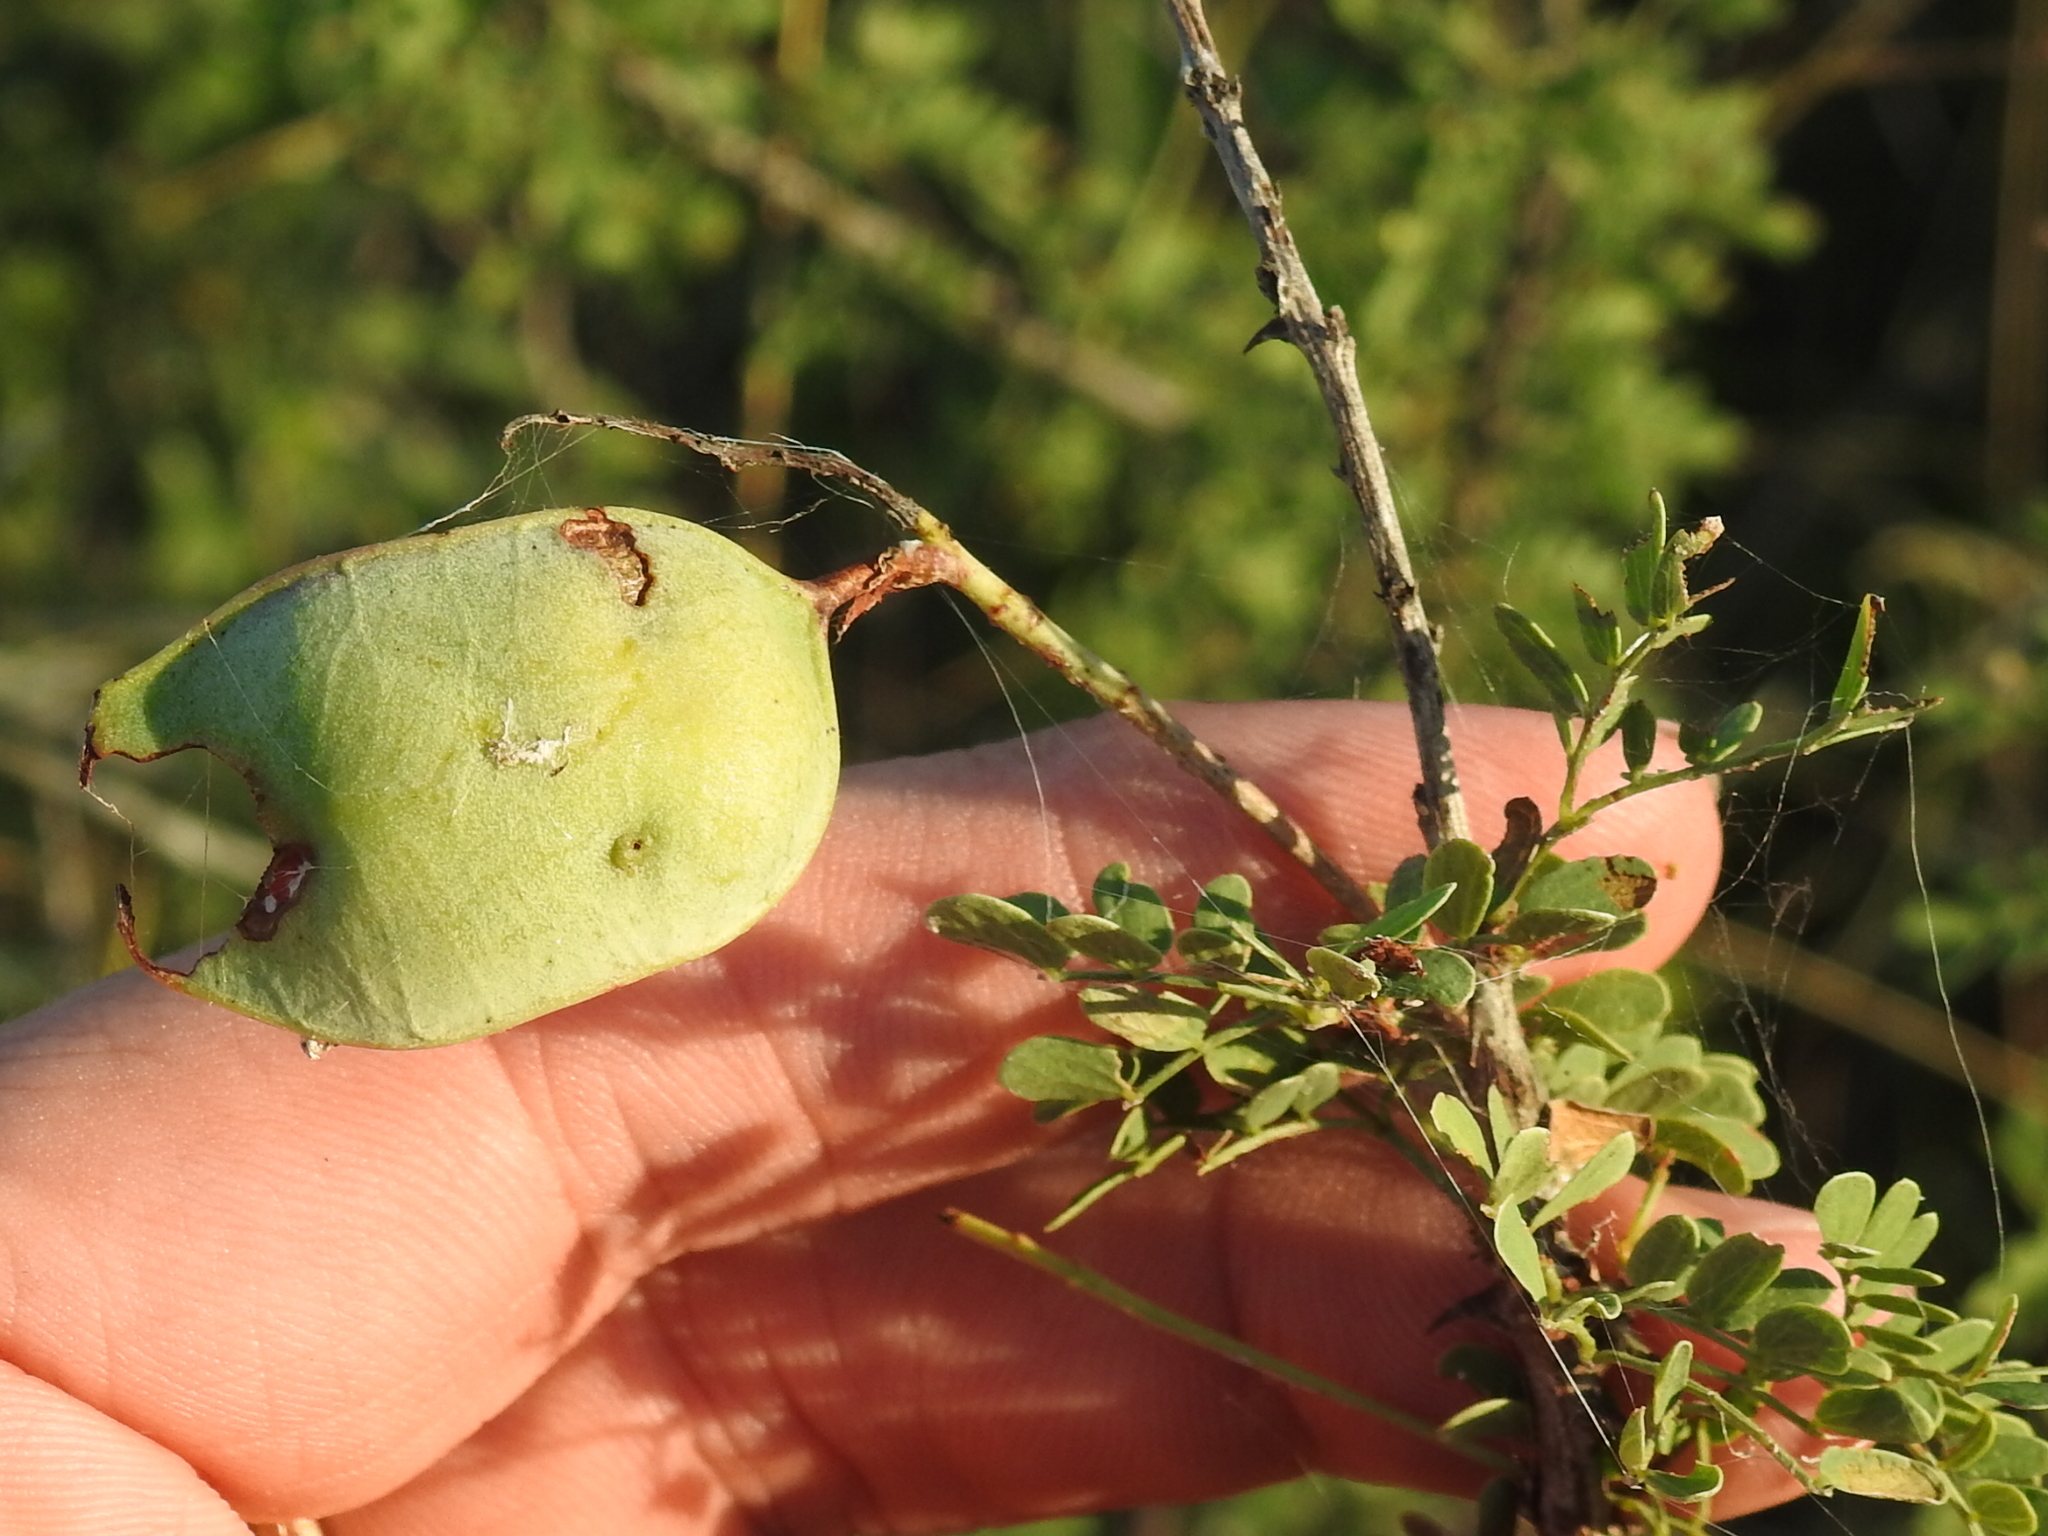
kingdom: Plantae
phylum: Tracheophyta
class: Magnoliopsida
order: Fabales
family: Fabaceae
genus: Senegalia
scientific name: Senegalia greggii
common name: Texas-mimosa
